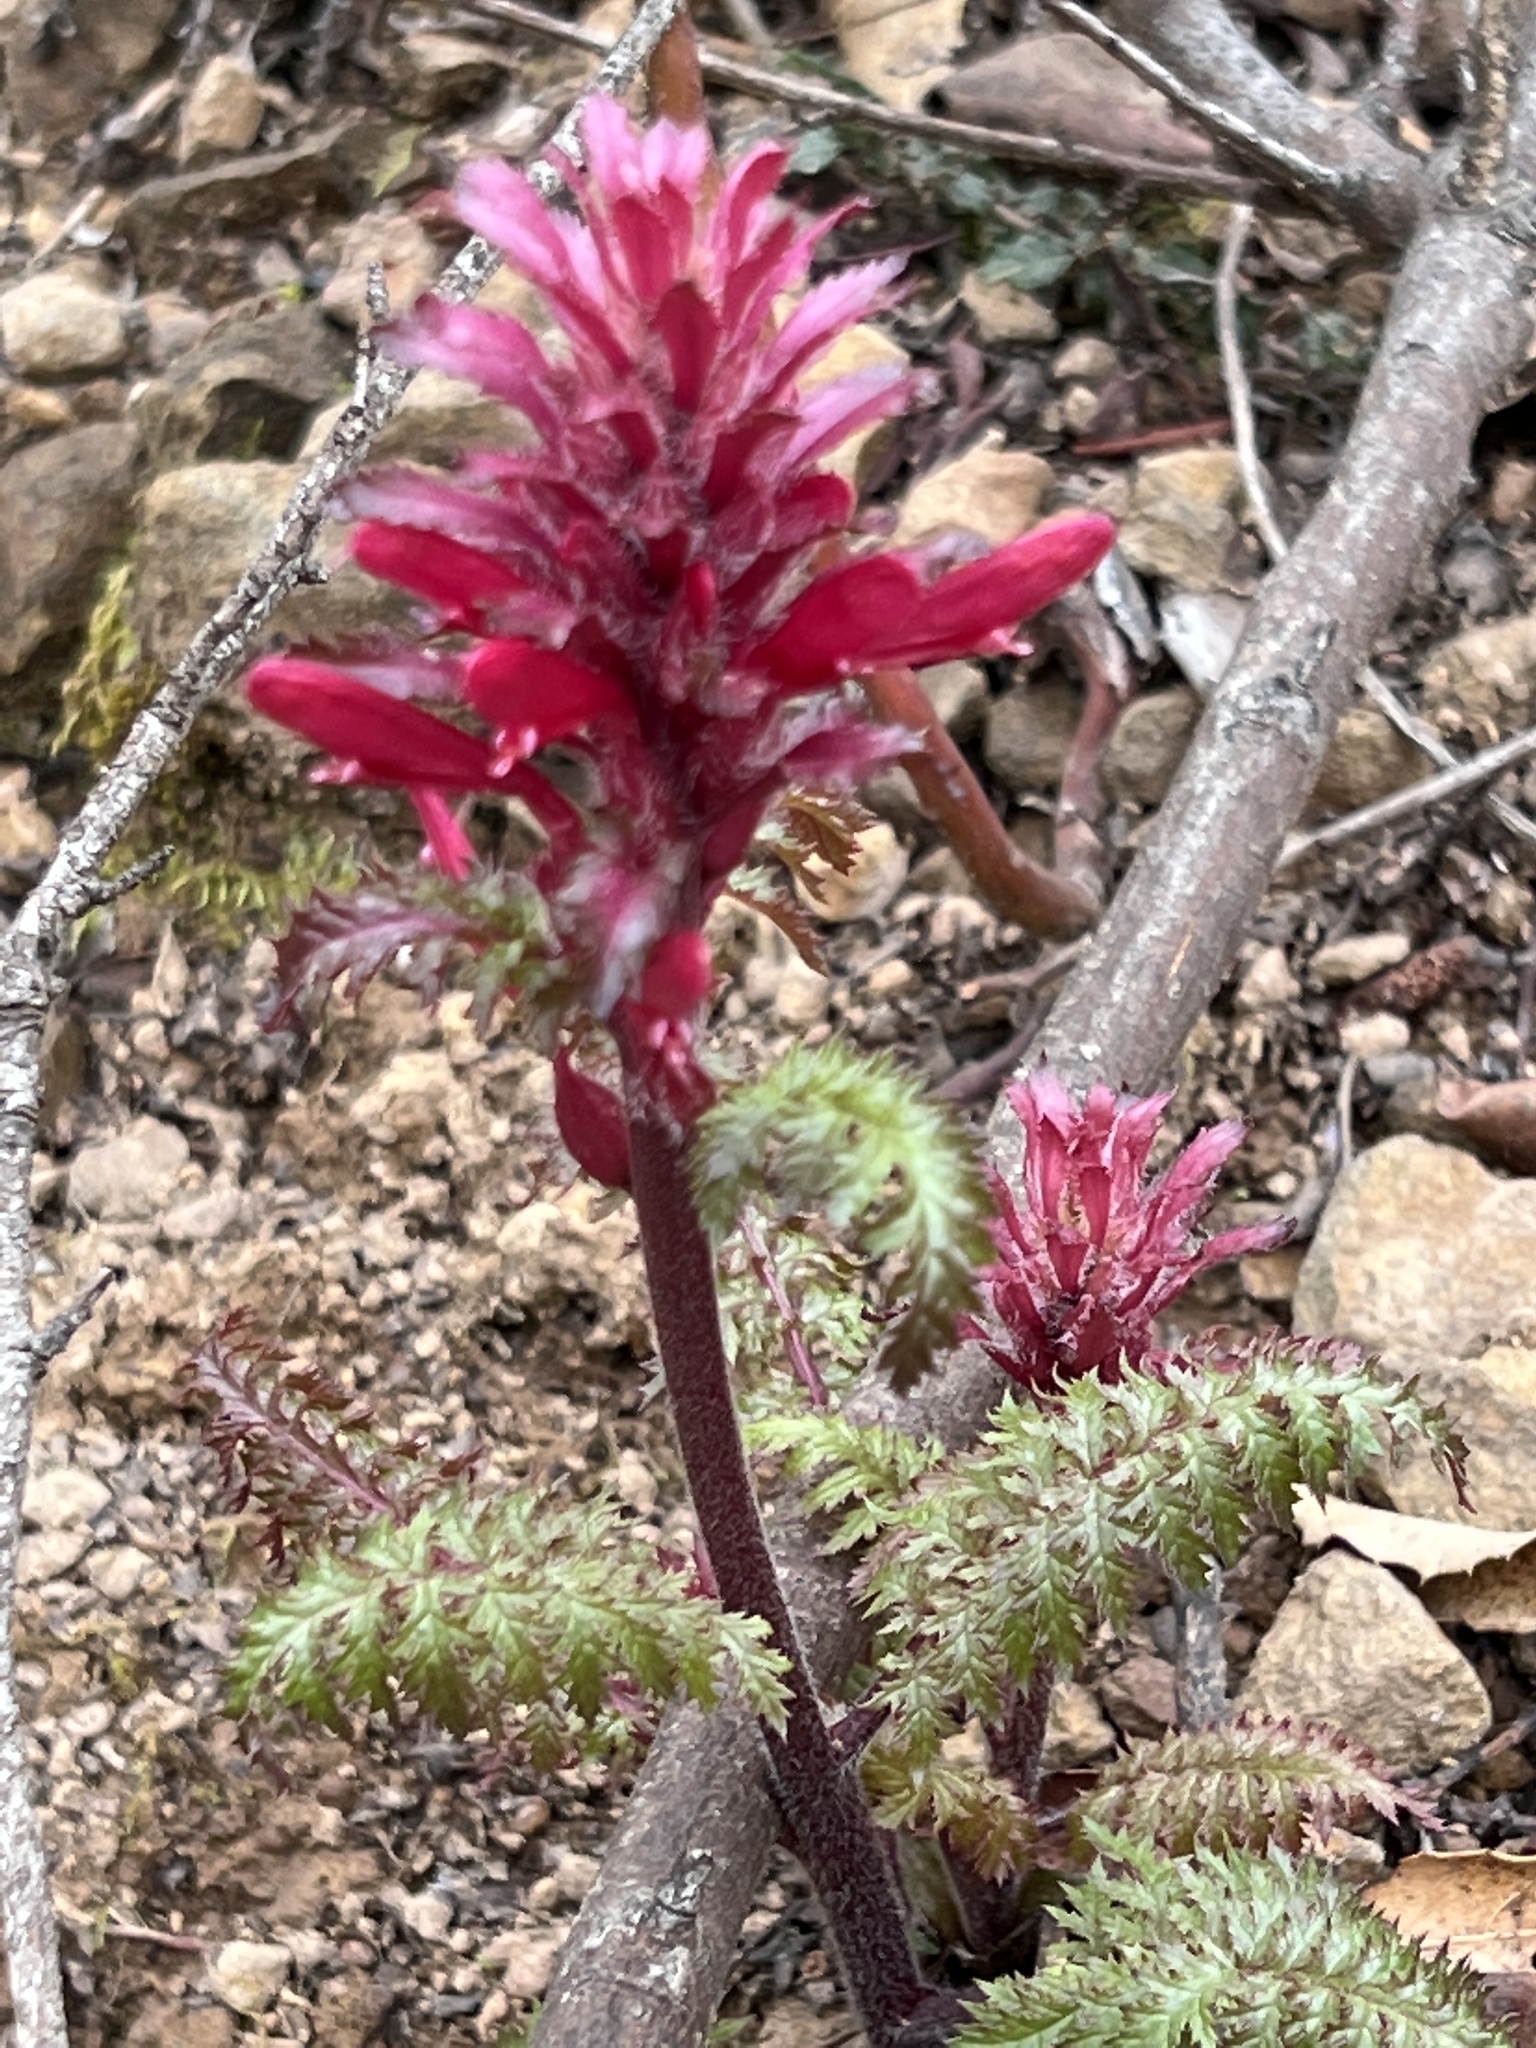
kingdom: Plantae
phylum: Tracheophyta
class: Magnoliopsida
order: Lamiales
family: Orobanchaceae
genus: Pedicularis
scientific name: Pedicularis densiflora
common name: Indian warrior
